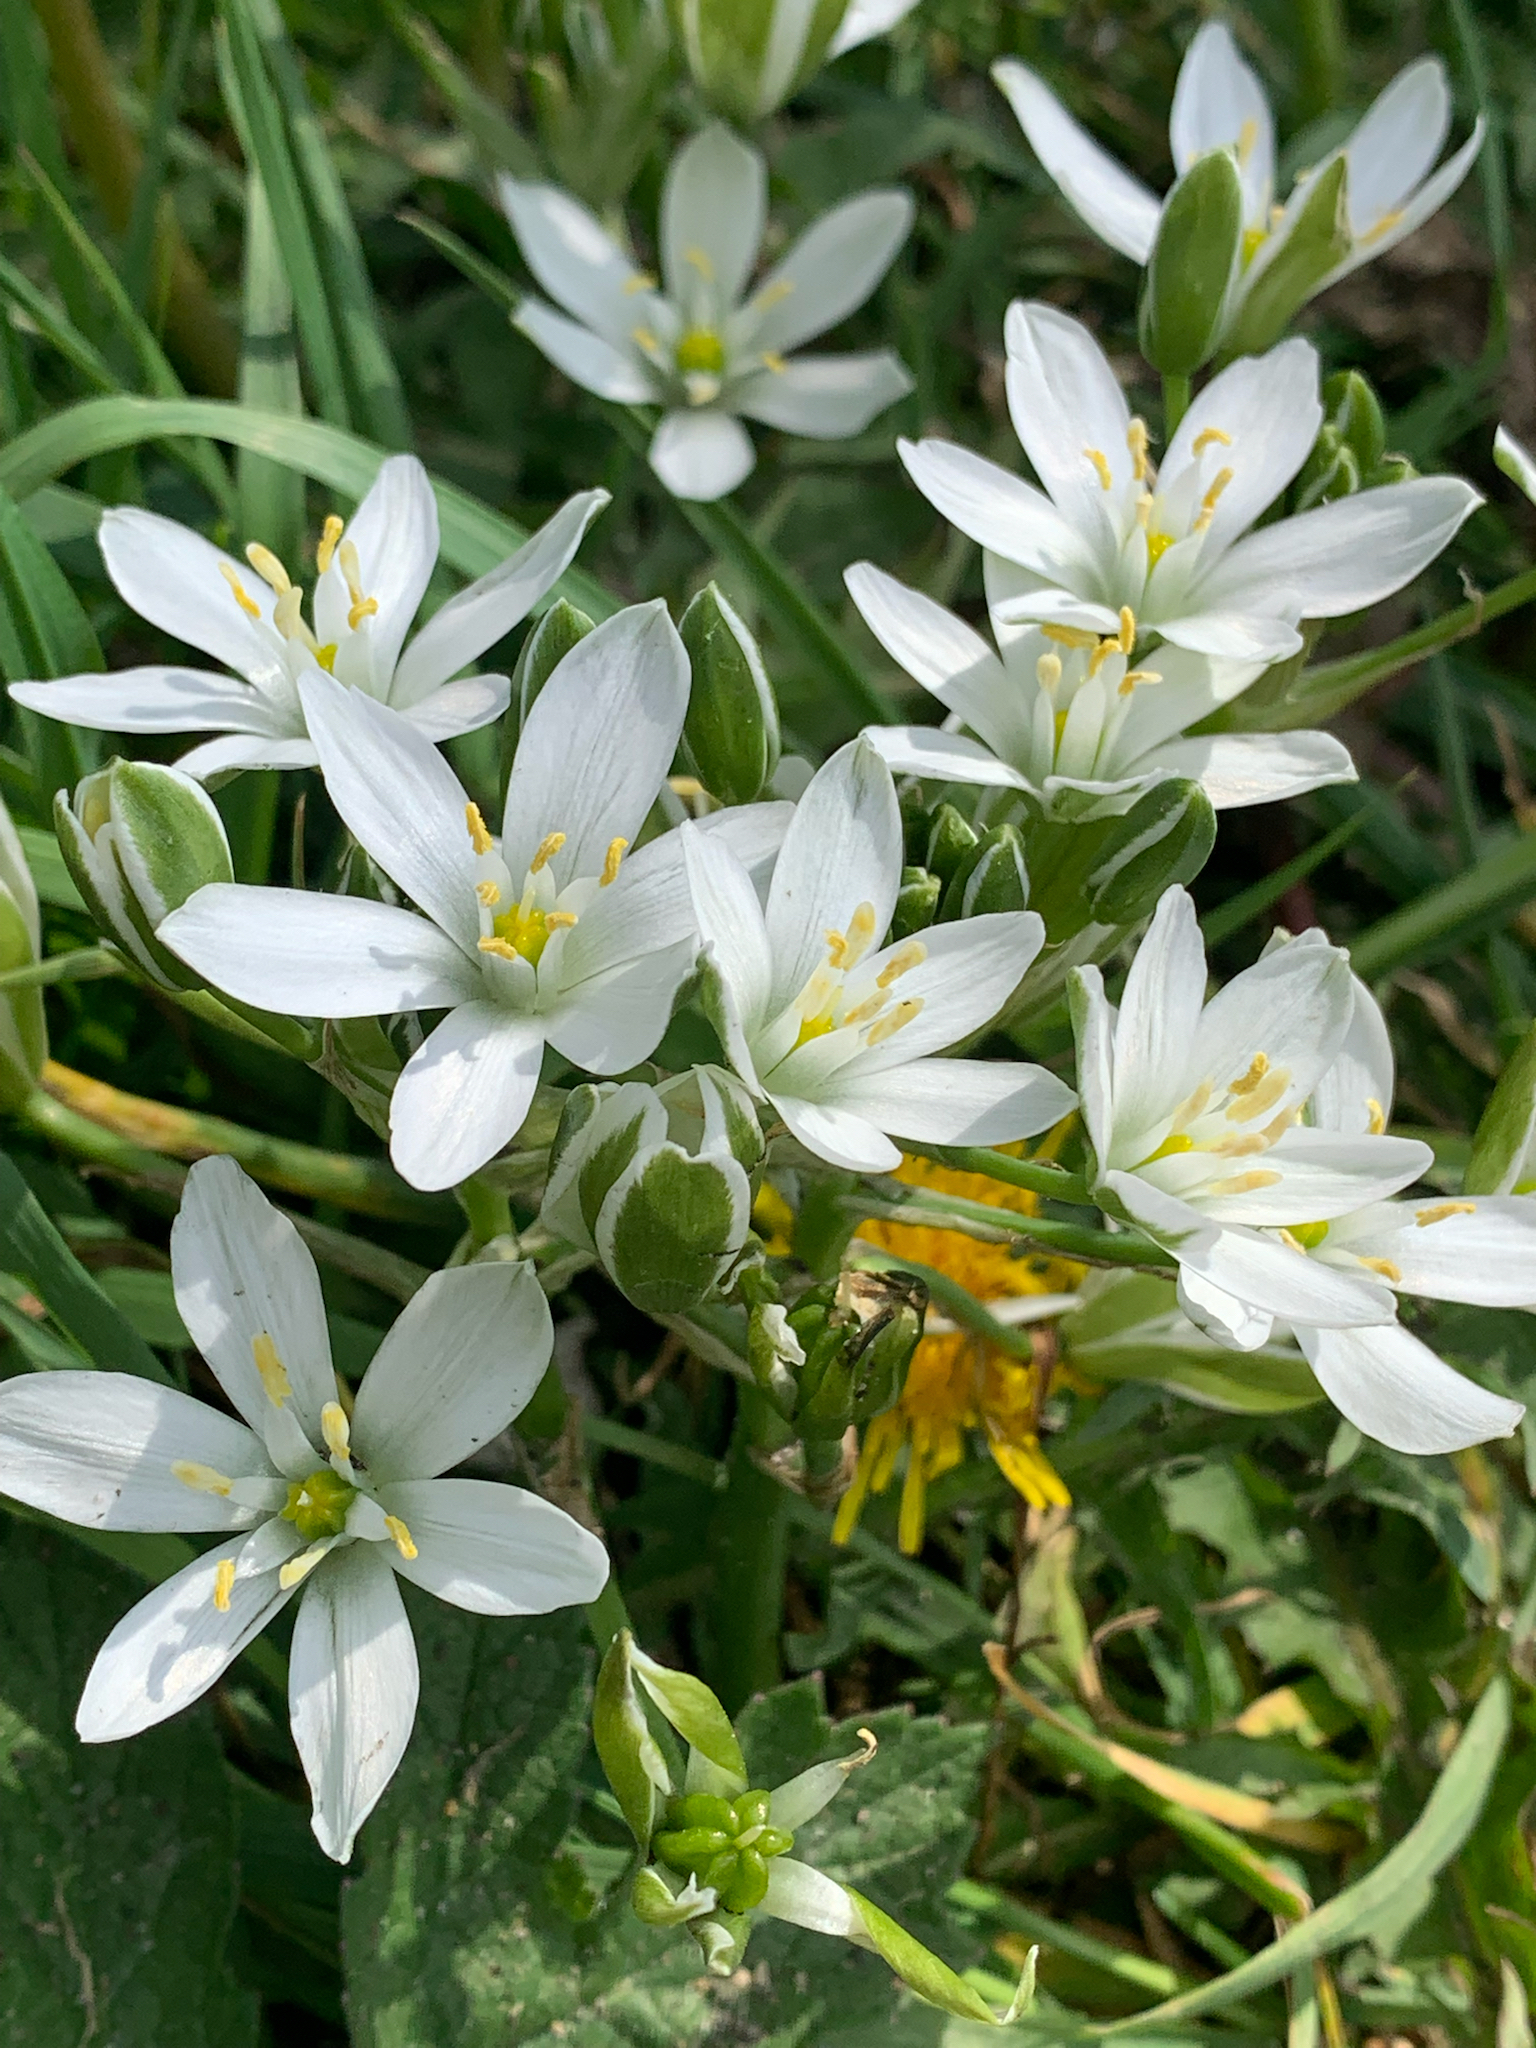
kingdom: Plantae
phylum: Tracheophyta
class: Liliopsida
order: Asparagales
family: Asparagaceae
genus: Ornithogalum
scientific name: Ornithogalum umbellatum
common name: Garden star-of-bethlehem
